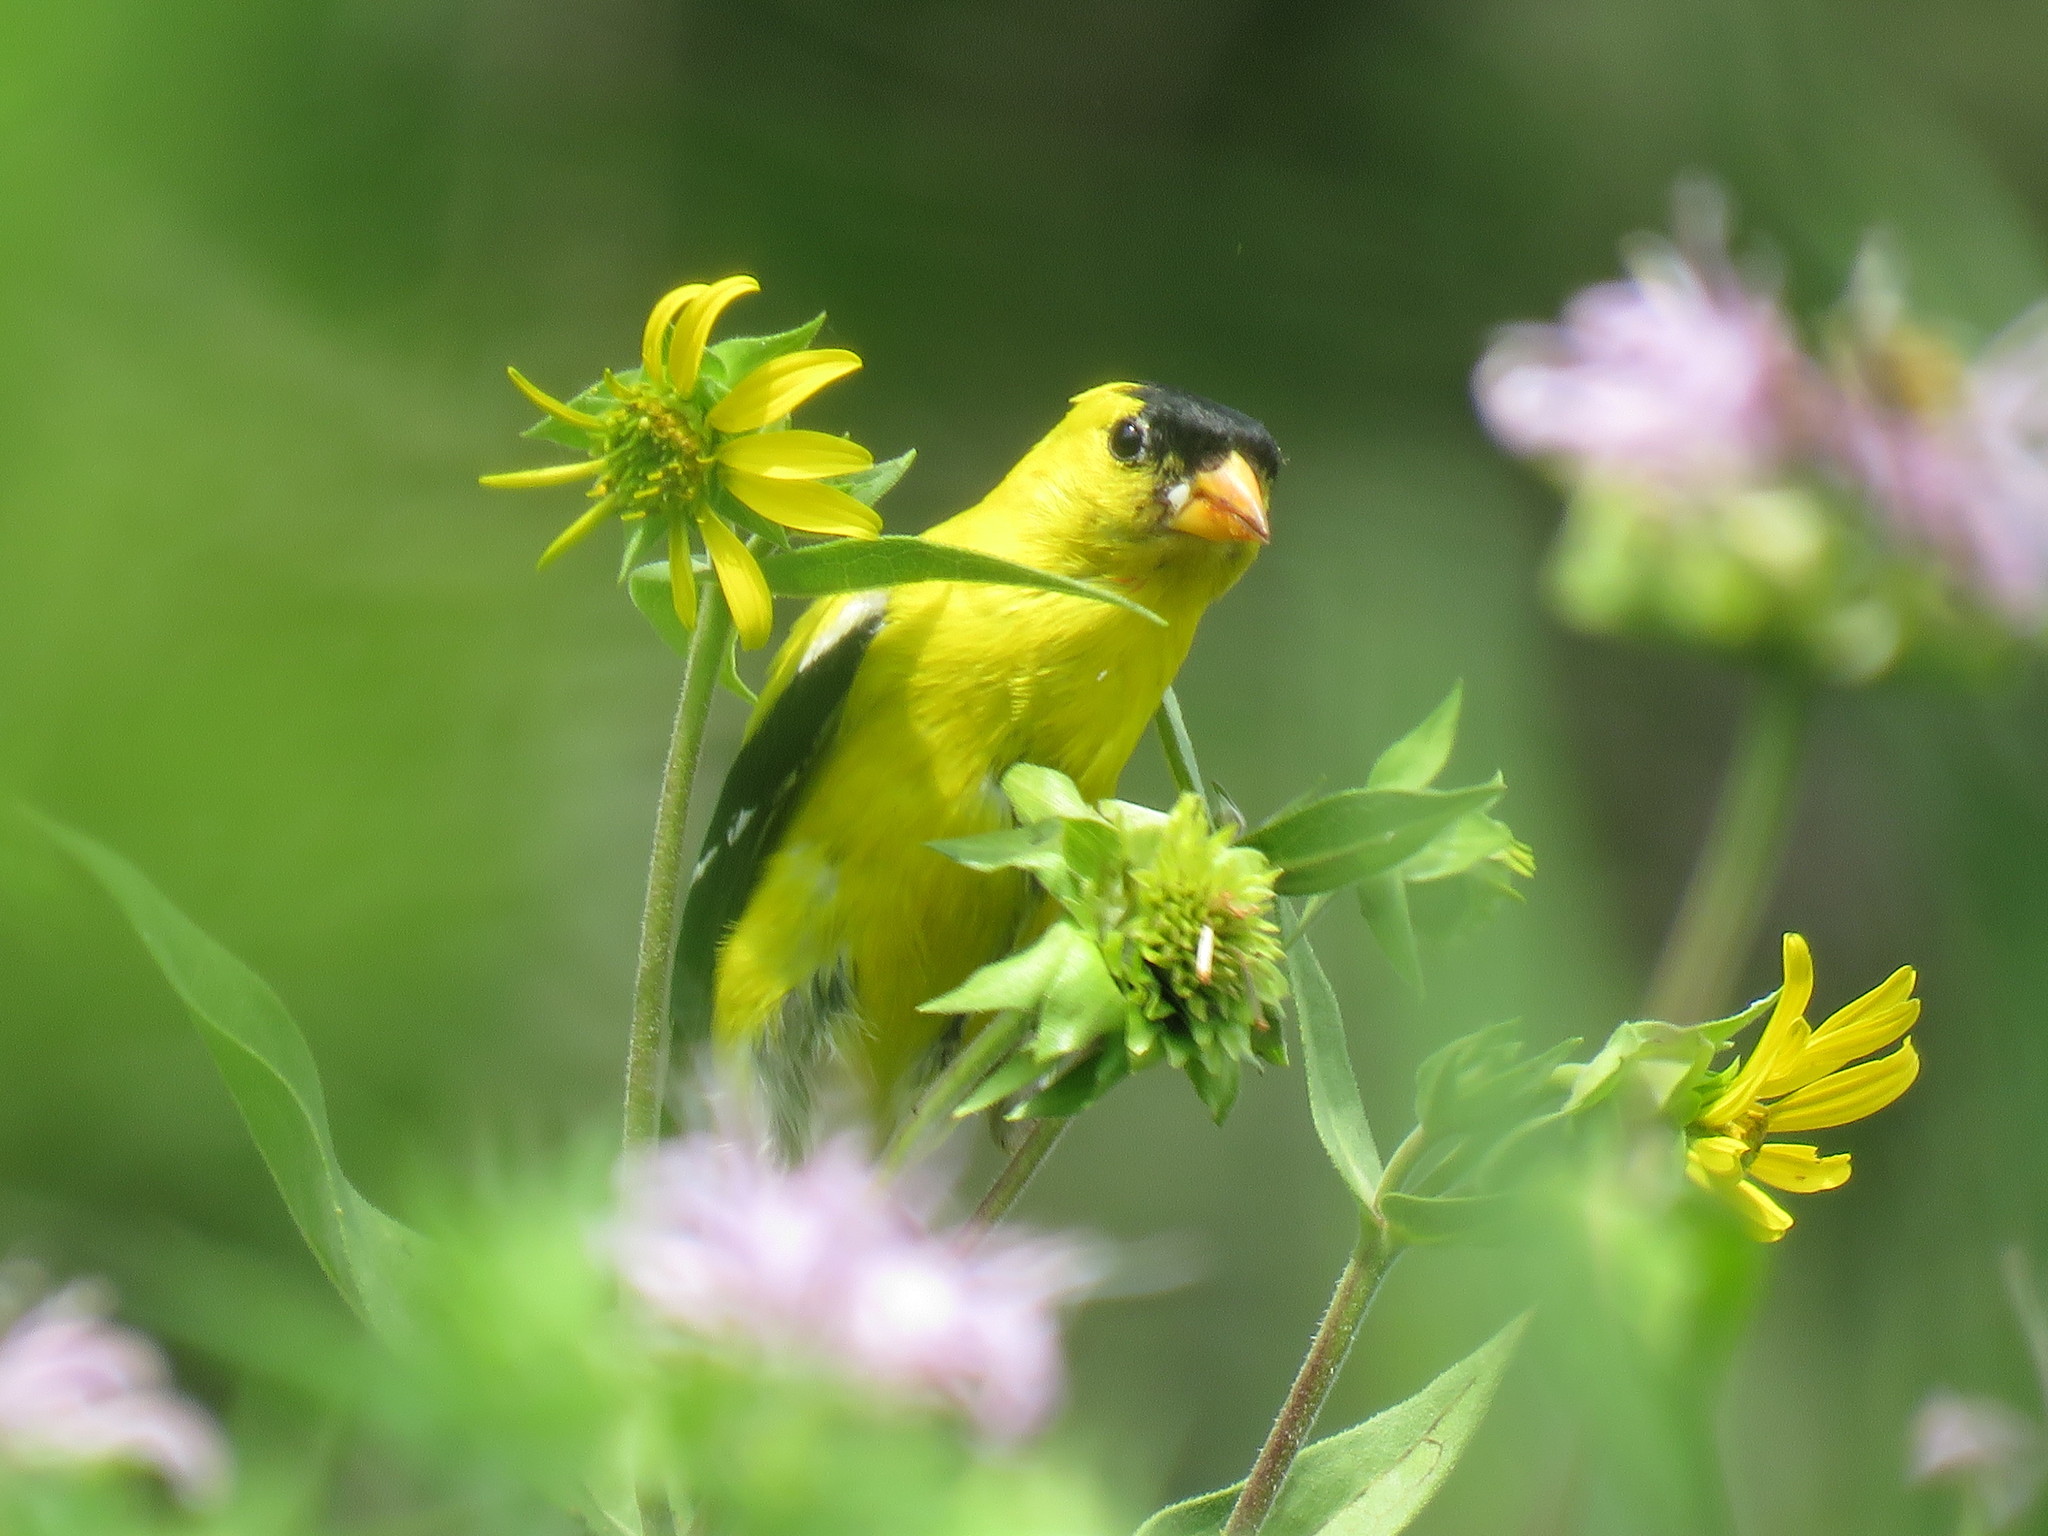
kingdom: Animalia
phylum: Chordata
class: Aves
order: Passeriformes
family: Fringillidae
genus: Spinus
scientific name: Spinus tristis
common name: American goldfinch
